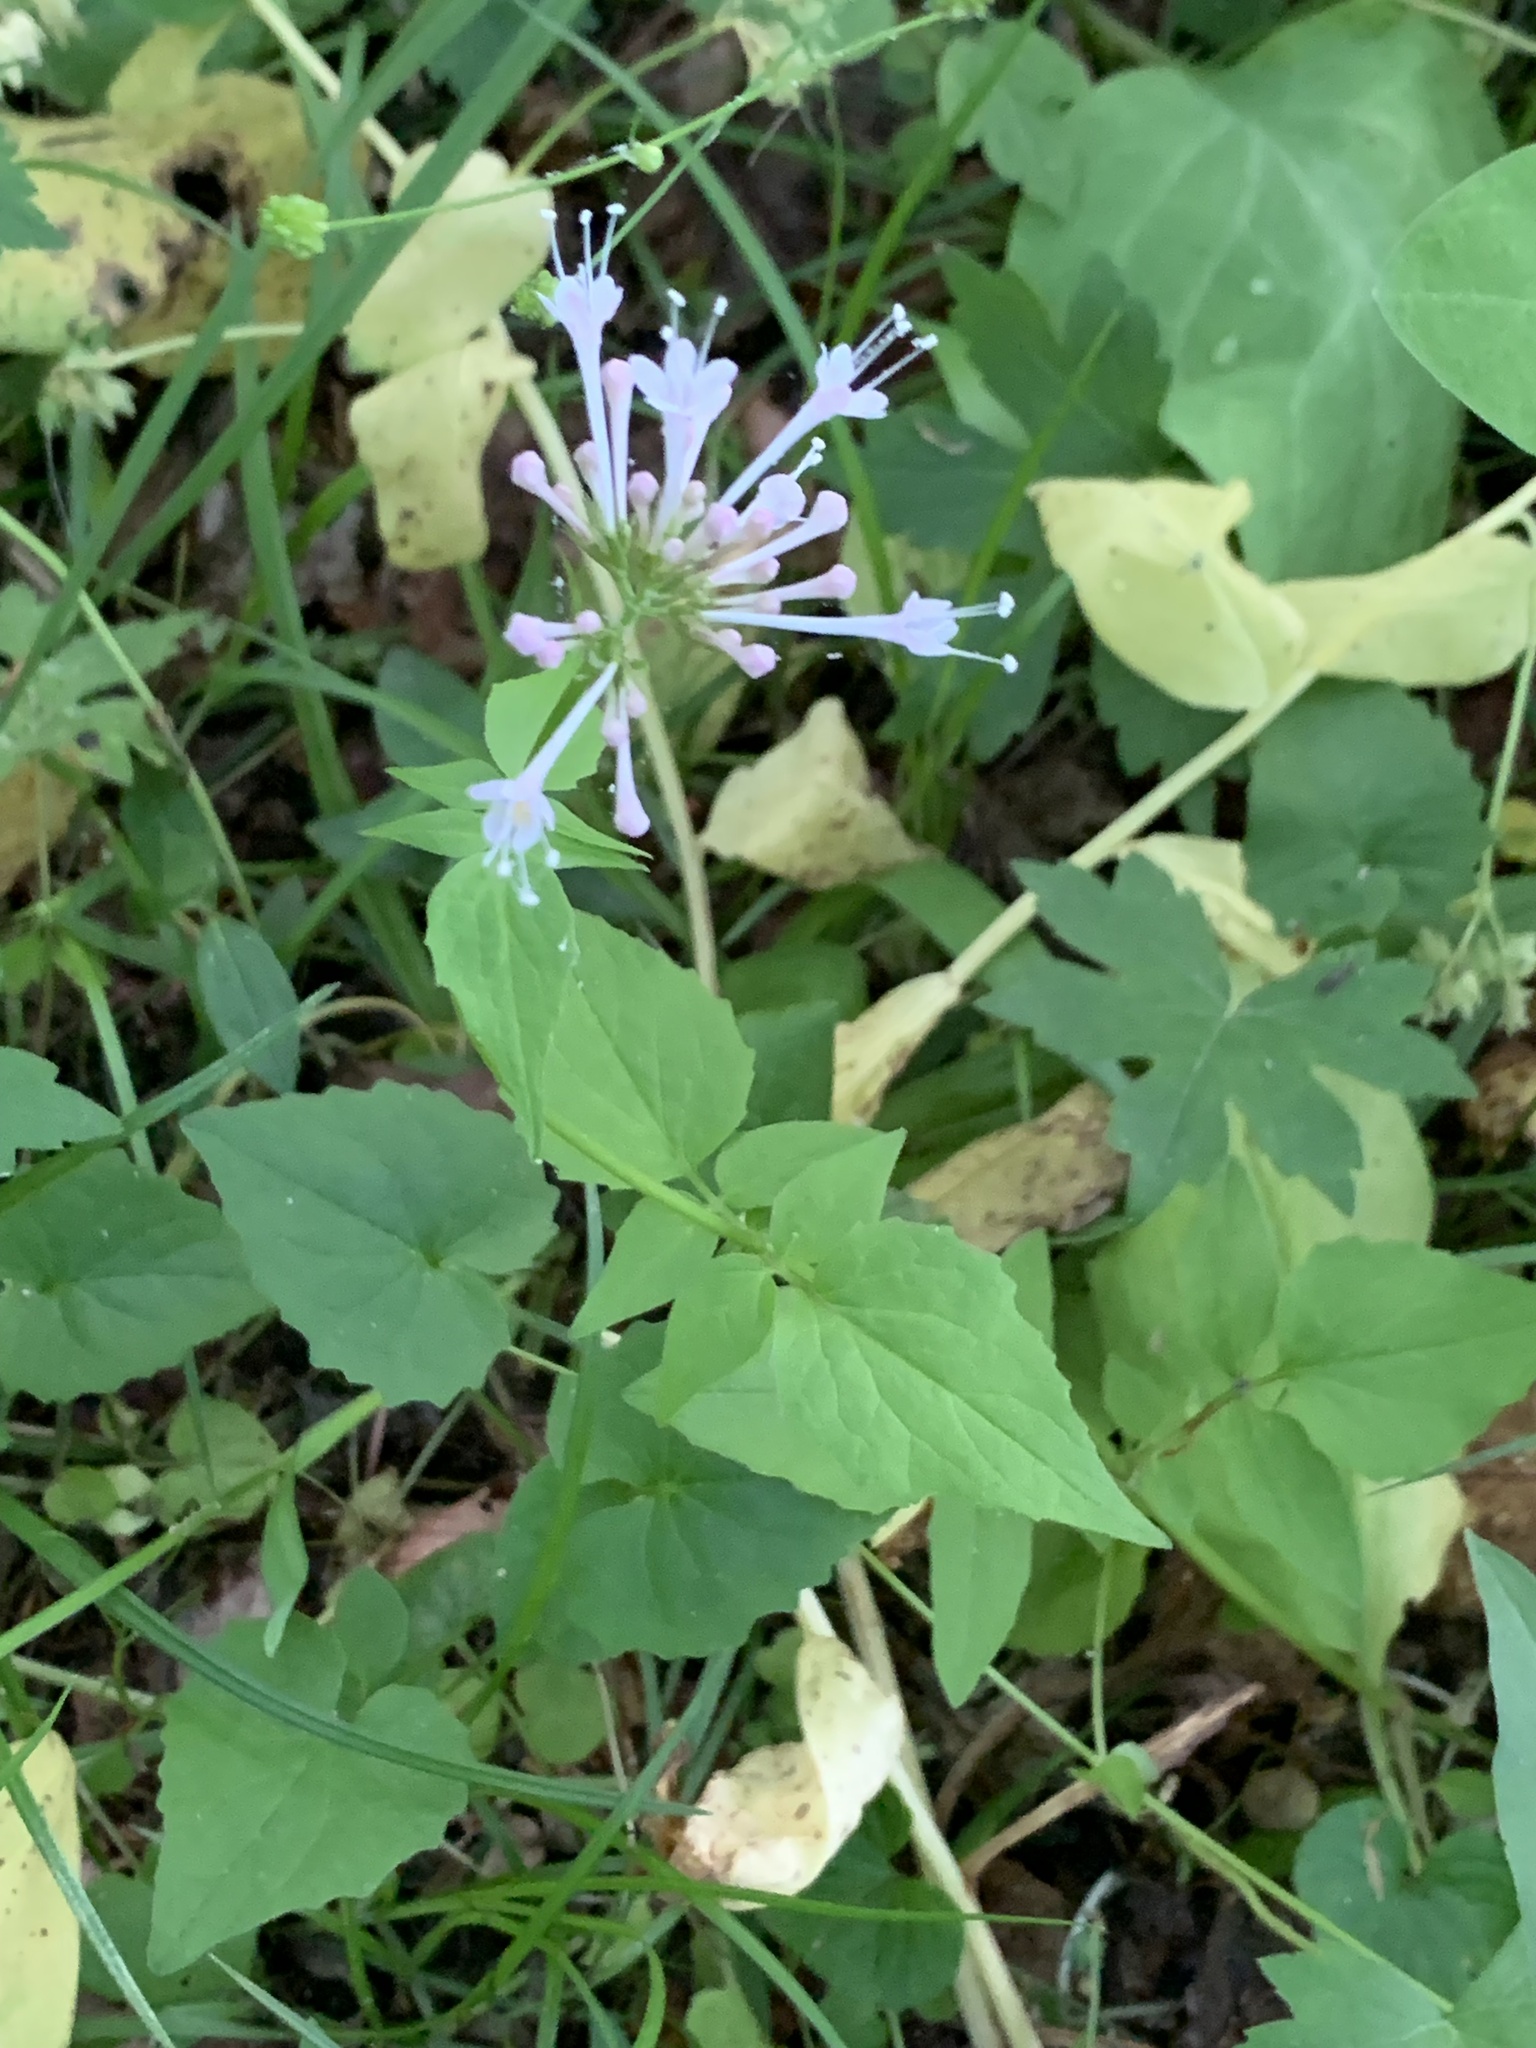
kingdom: Plantae
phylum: Tracheophyta
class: Magnoliopsida
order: Dipsacales
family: Caprifoliaceae
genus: Valeriana
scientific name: Valeriana pauciflora
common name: Long-tube valeriana
